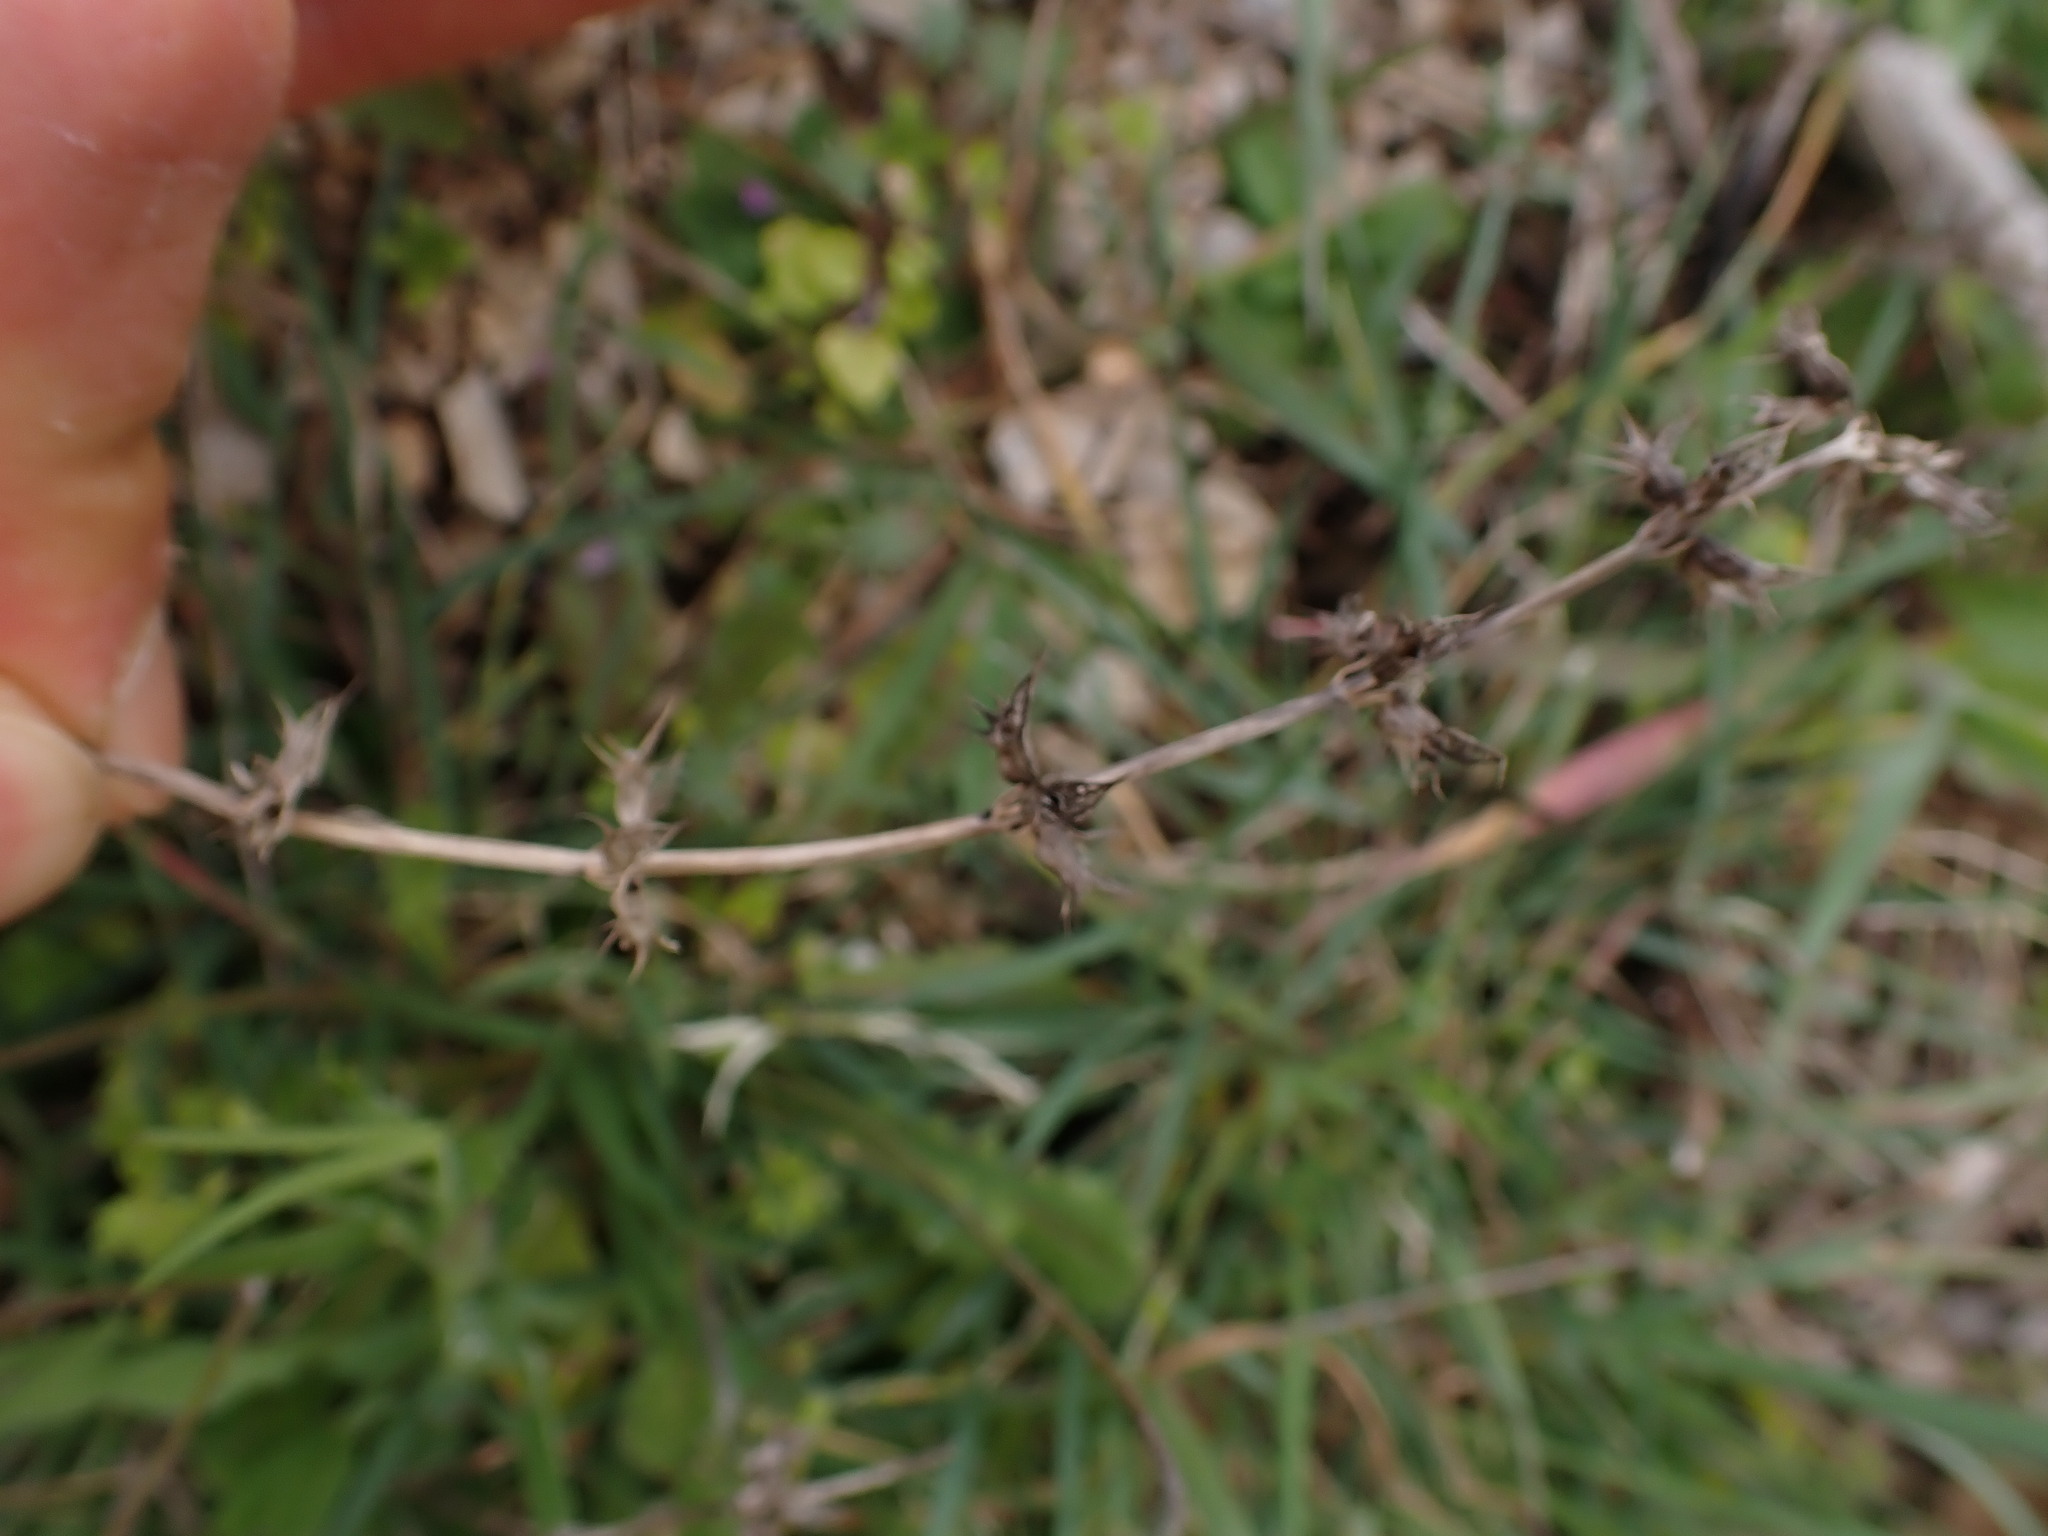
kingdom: Plantae
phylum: Tracheophyta
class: Magnoliopsida
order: Lamiales
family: Lamiaceae
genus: Sideritis
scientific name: Sideritis romana
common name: Simplebeak ironwort
